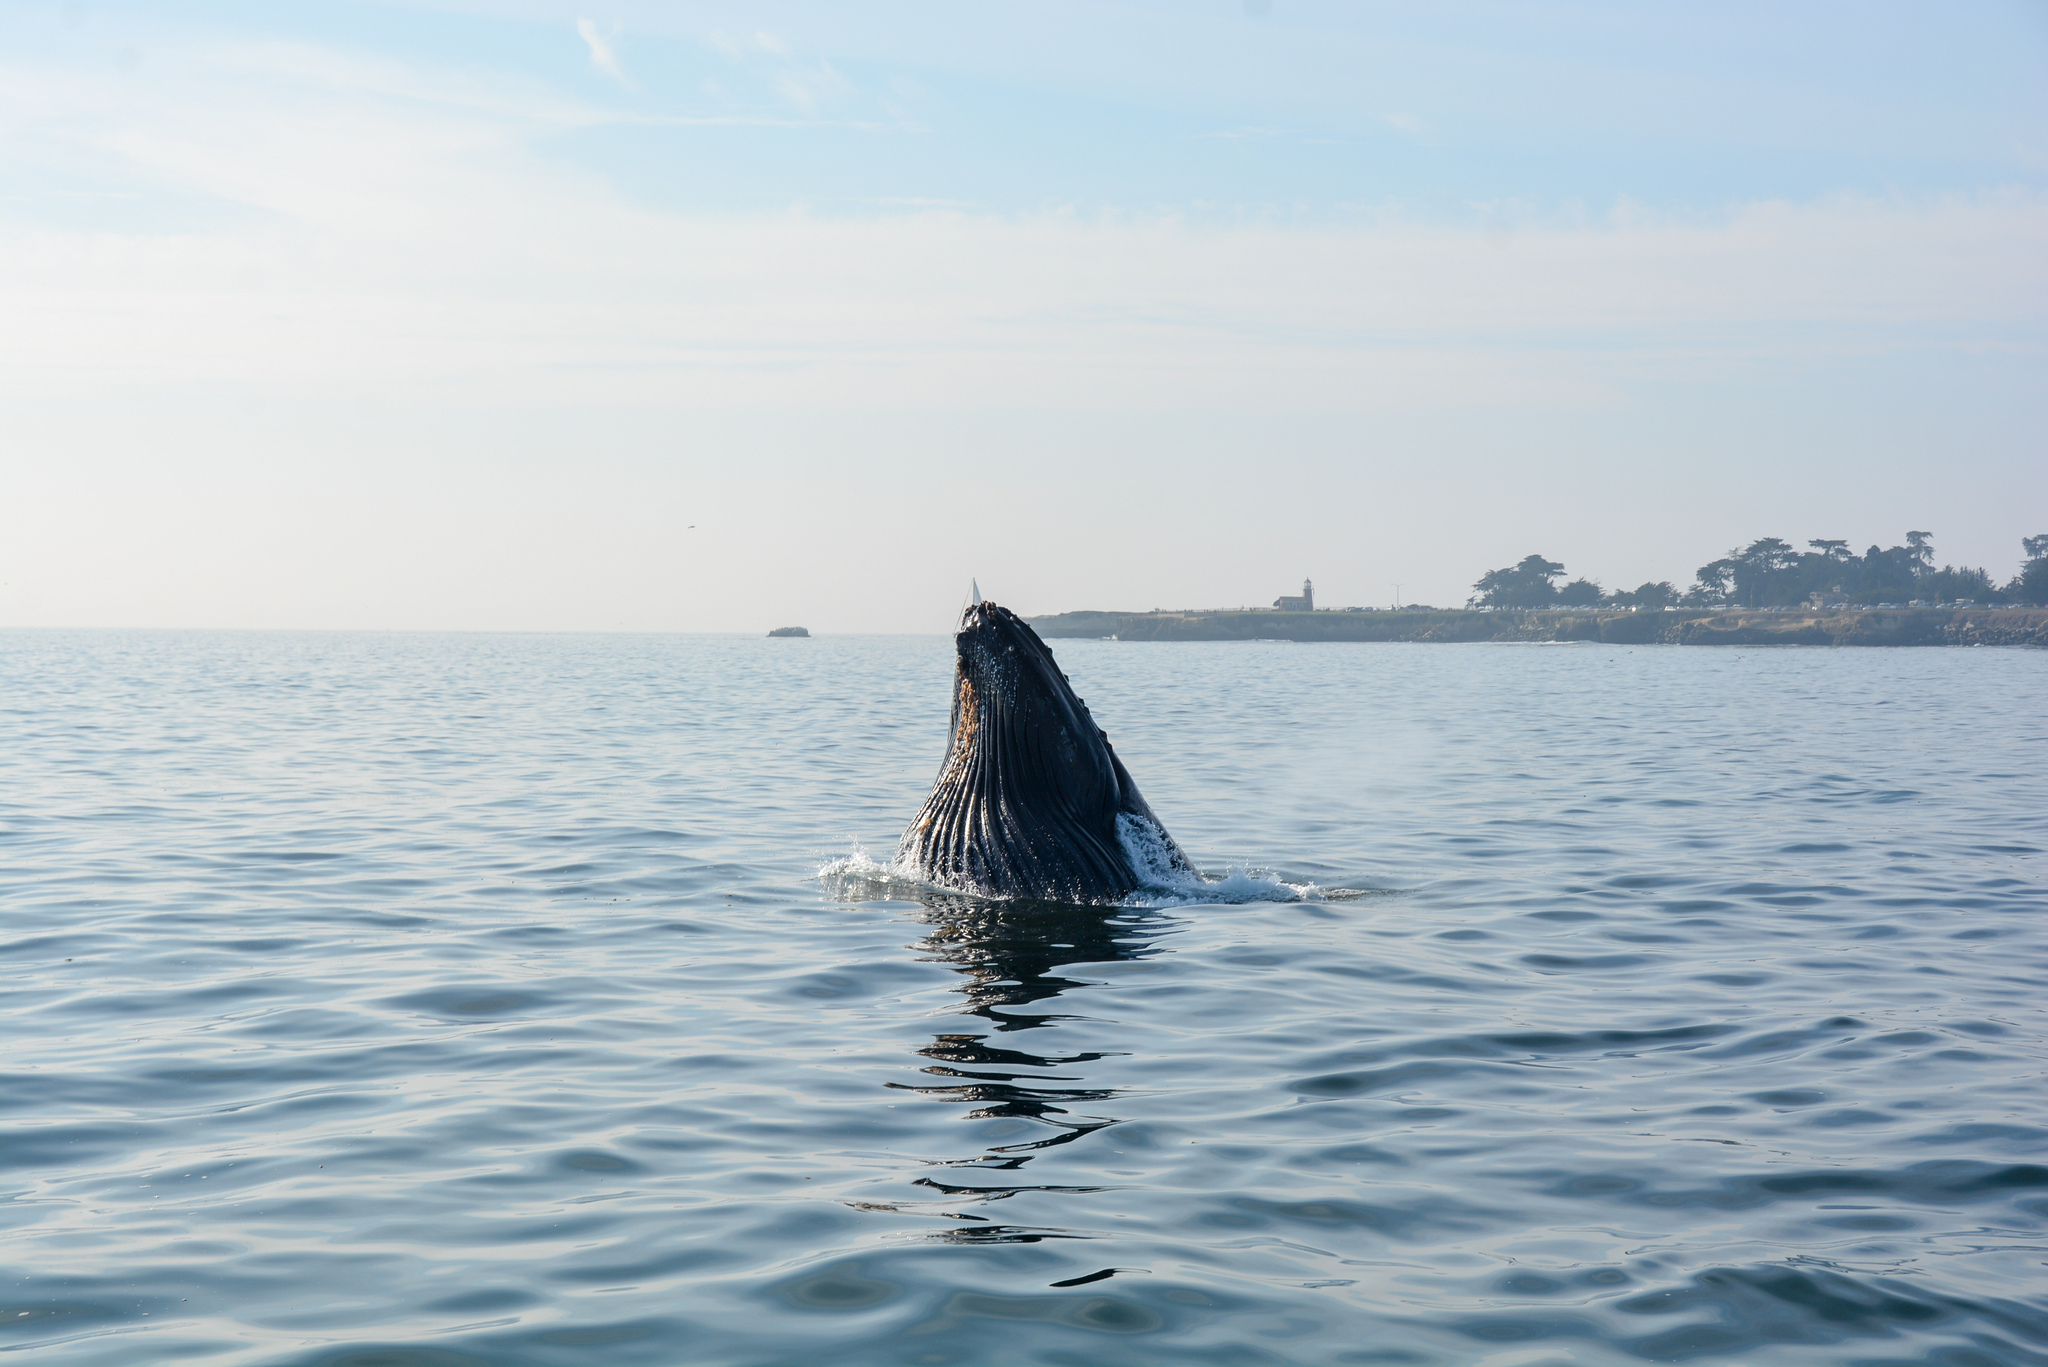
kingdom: Animalia
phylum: Chordata
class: Mammalia
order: Cetacea
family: Balaenopteridae
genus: Megaptera
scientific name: Megaptera novaeangliae
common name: Humpback whale
